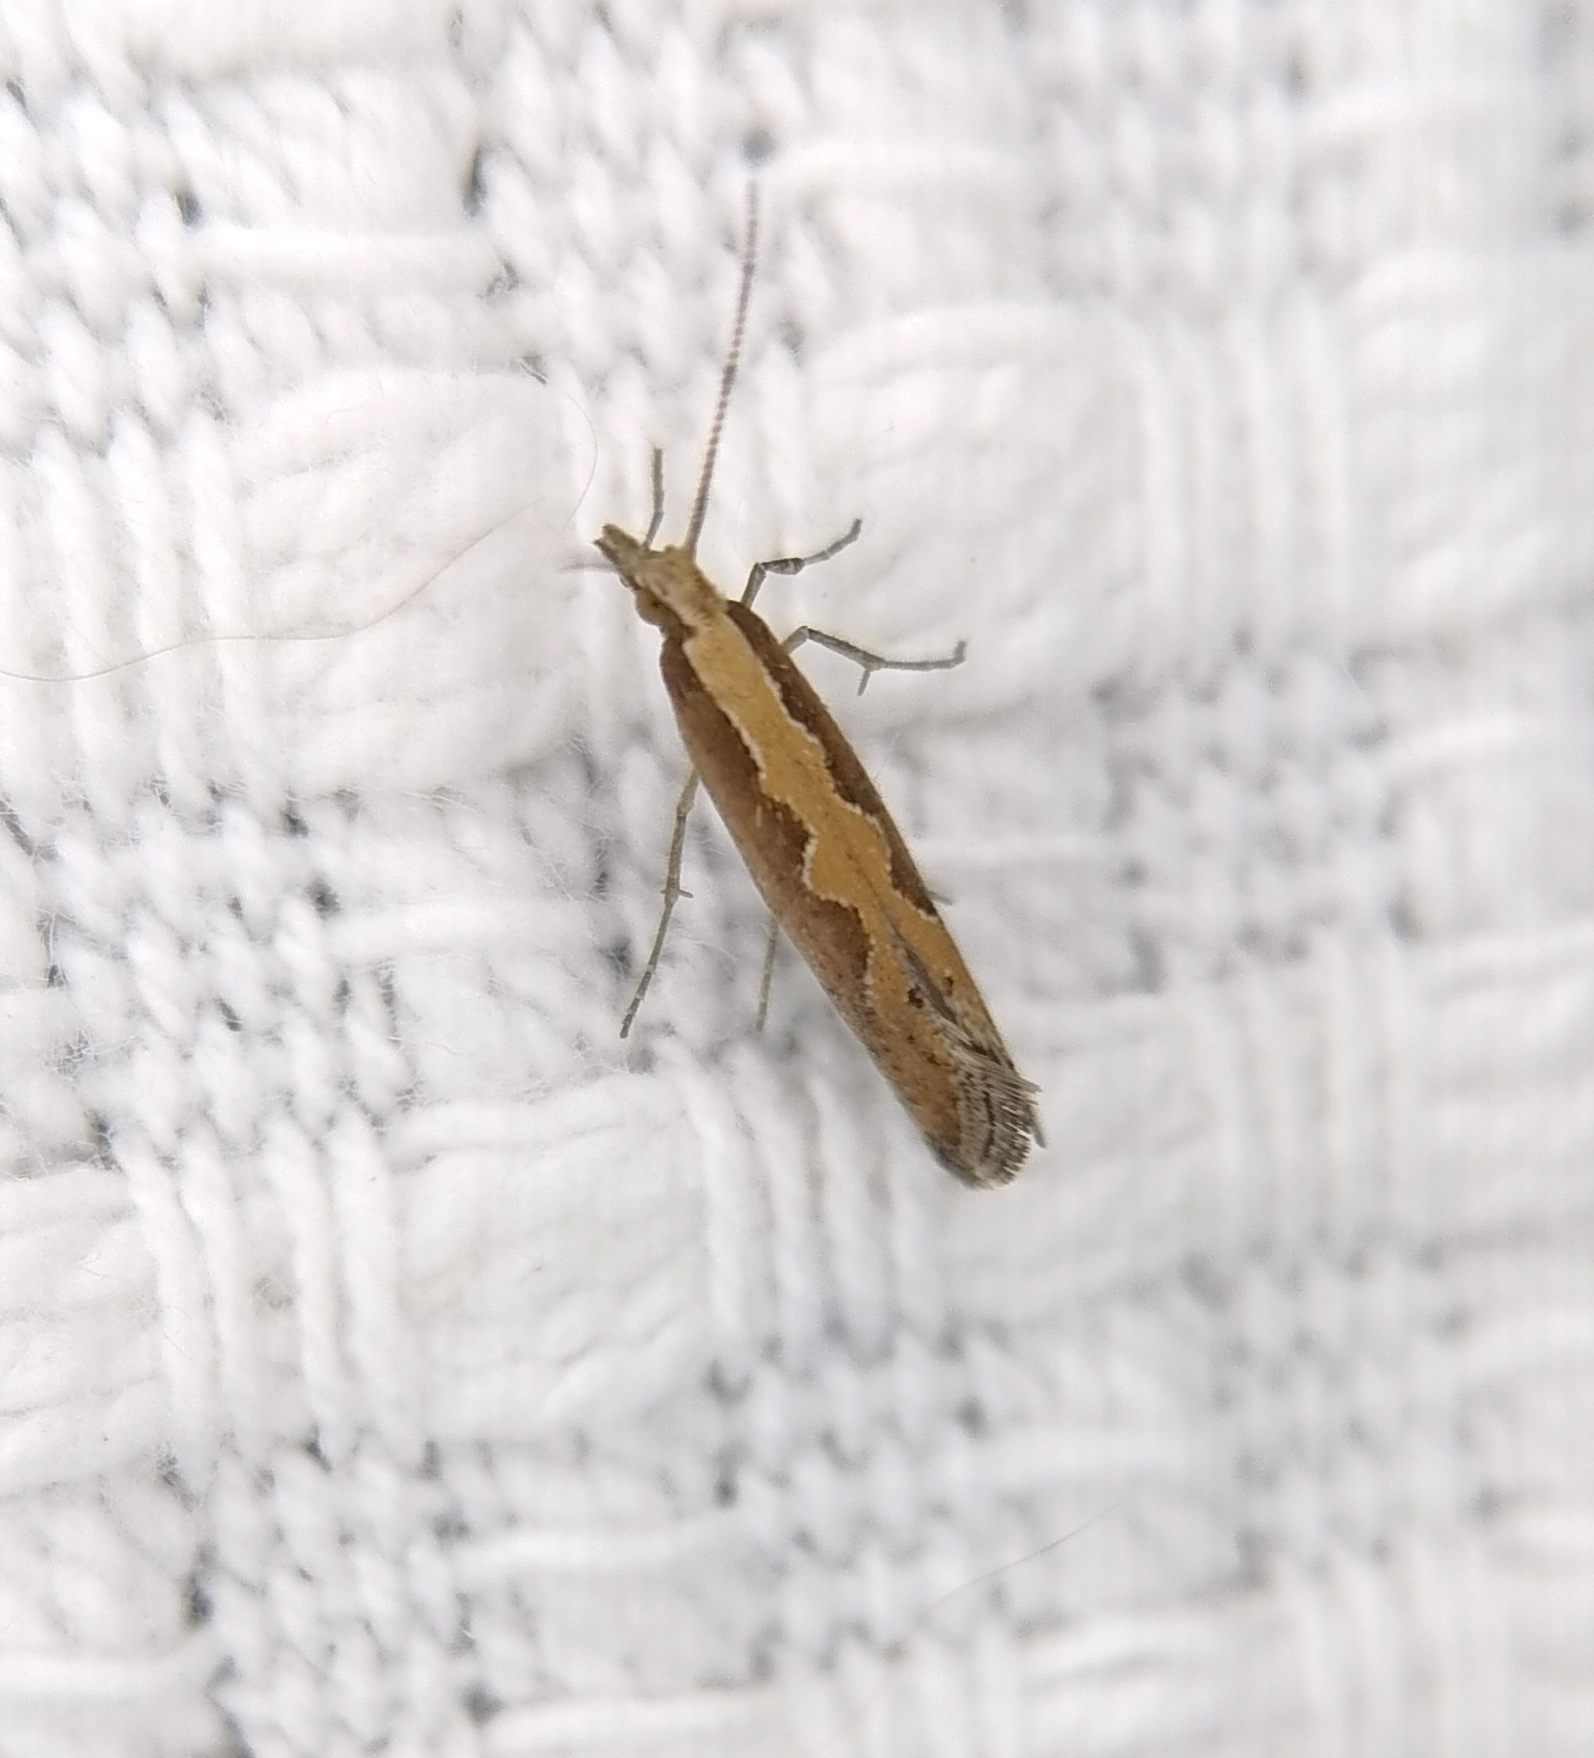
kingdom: Animalia
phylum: Arthropoda
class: Insecta
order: Lepidoptera
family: Plutellidae
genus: Plutella
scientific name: Plutella xylostella
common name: Diamond-back moth
